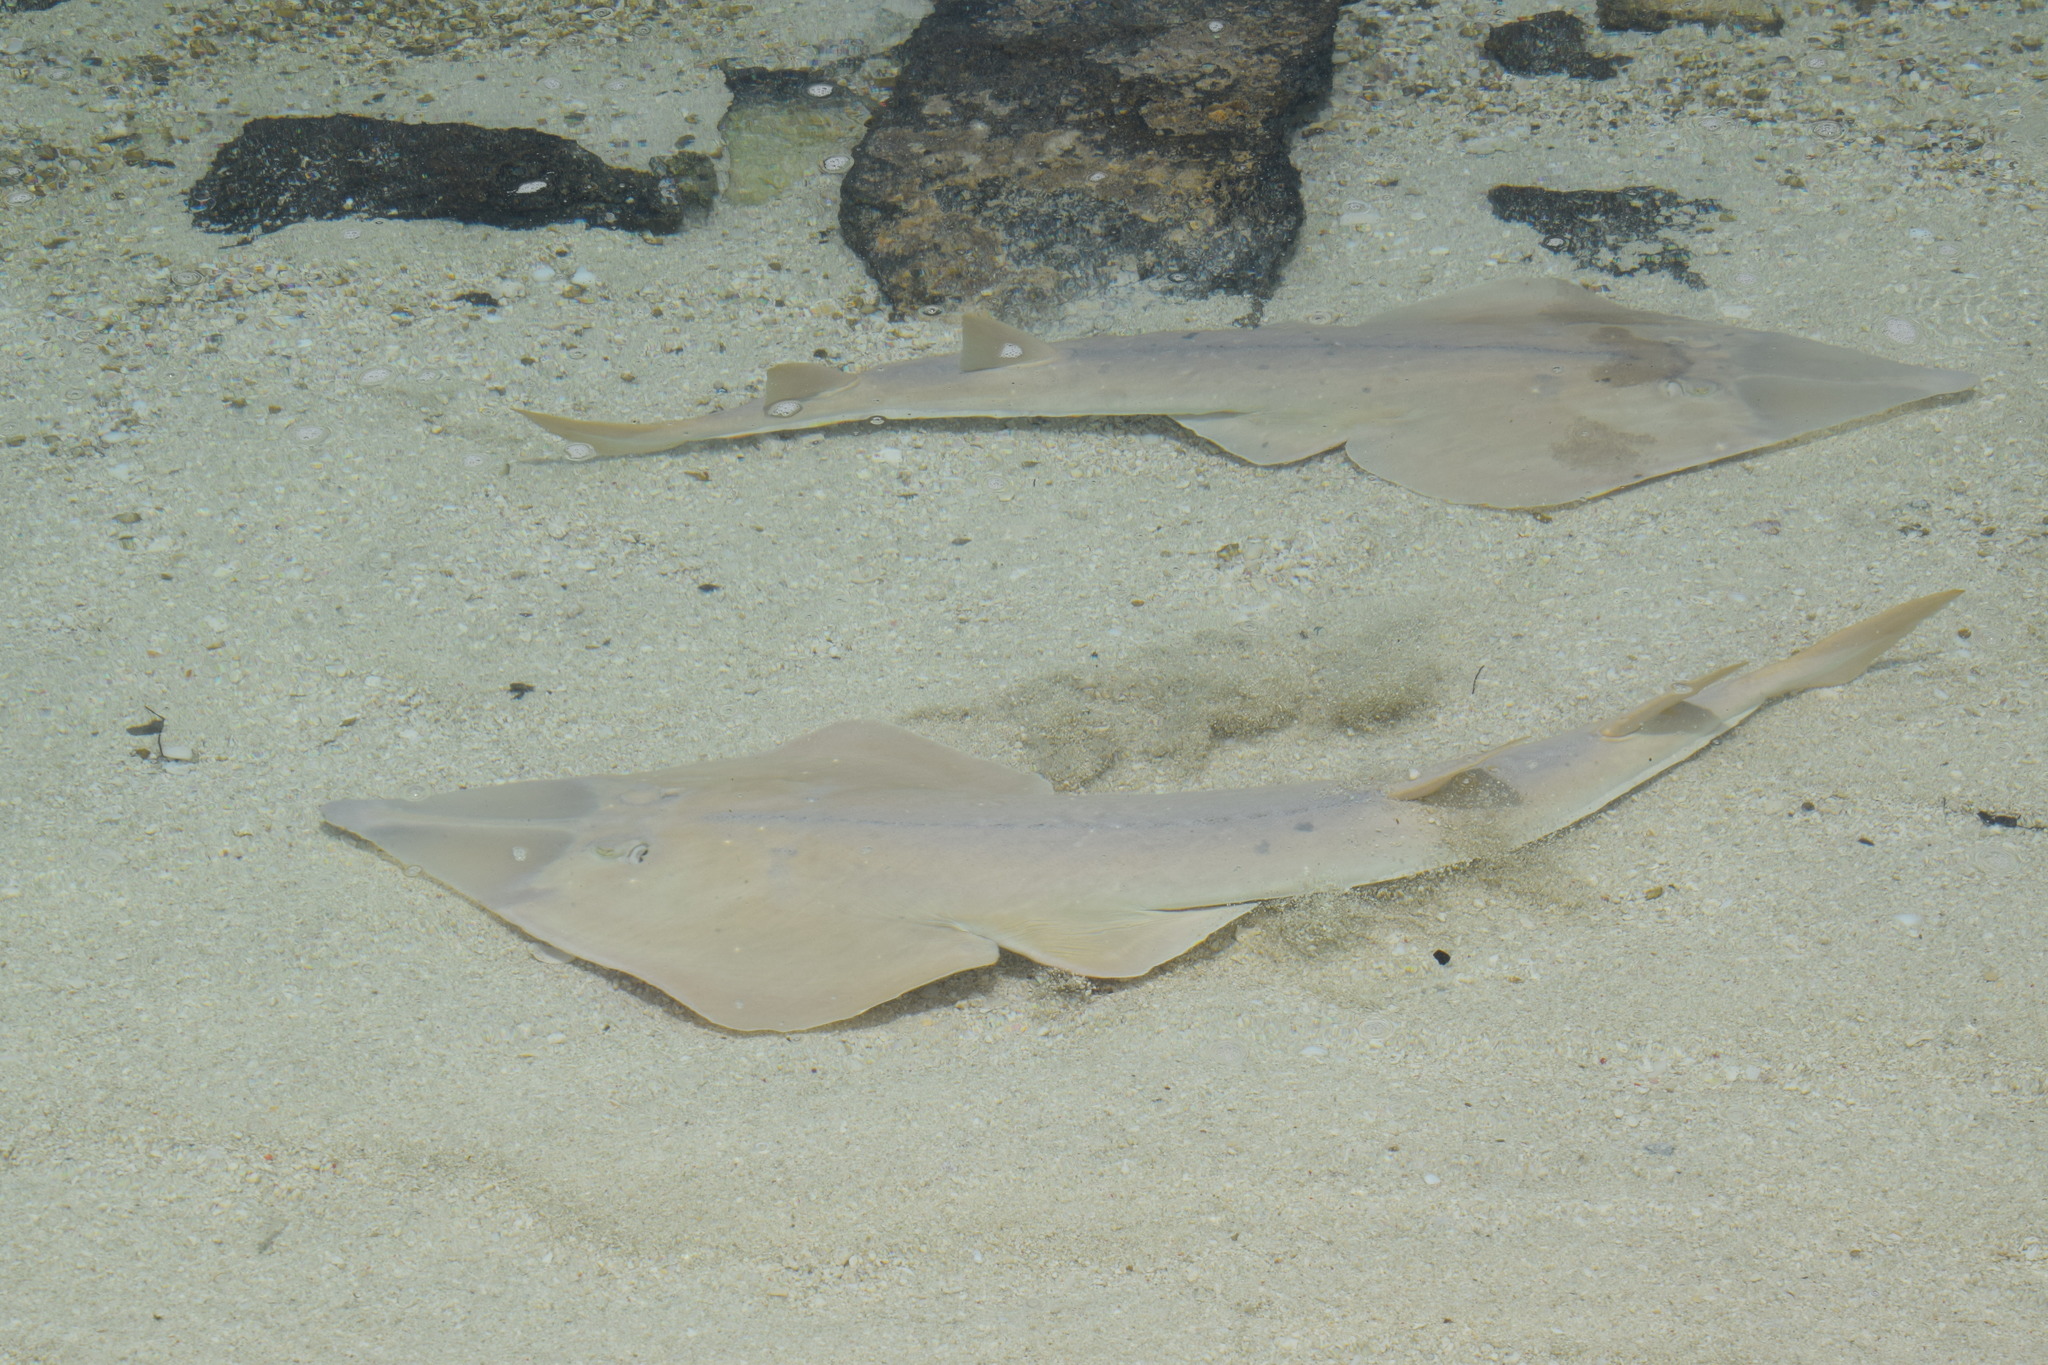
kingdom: Animalia
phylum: Chordata
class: Elasmobranchii
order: Rhinopristiformes
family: Glaucostegidae
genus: Glaucostegus
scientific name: Glaucostegus typus
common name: Giant shovelnose ray
